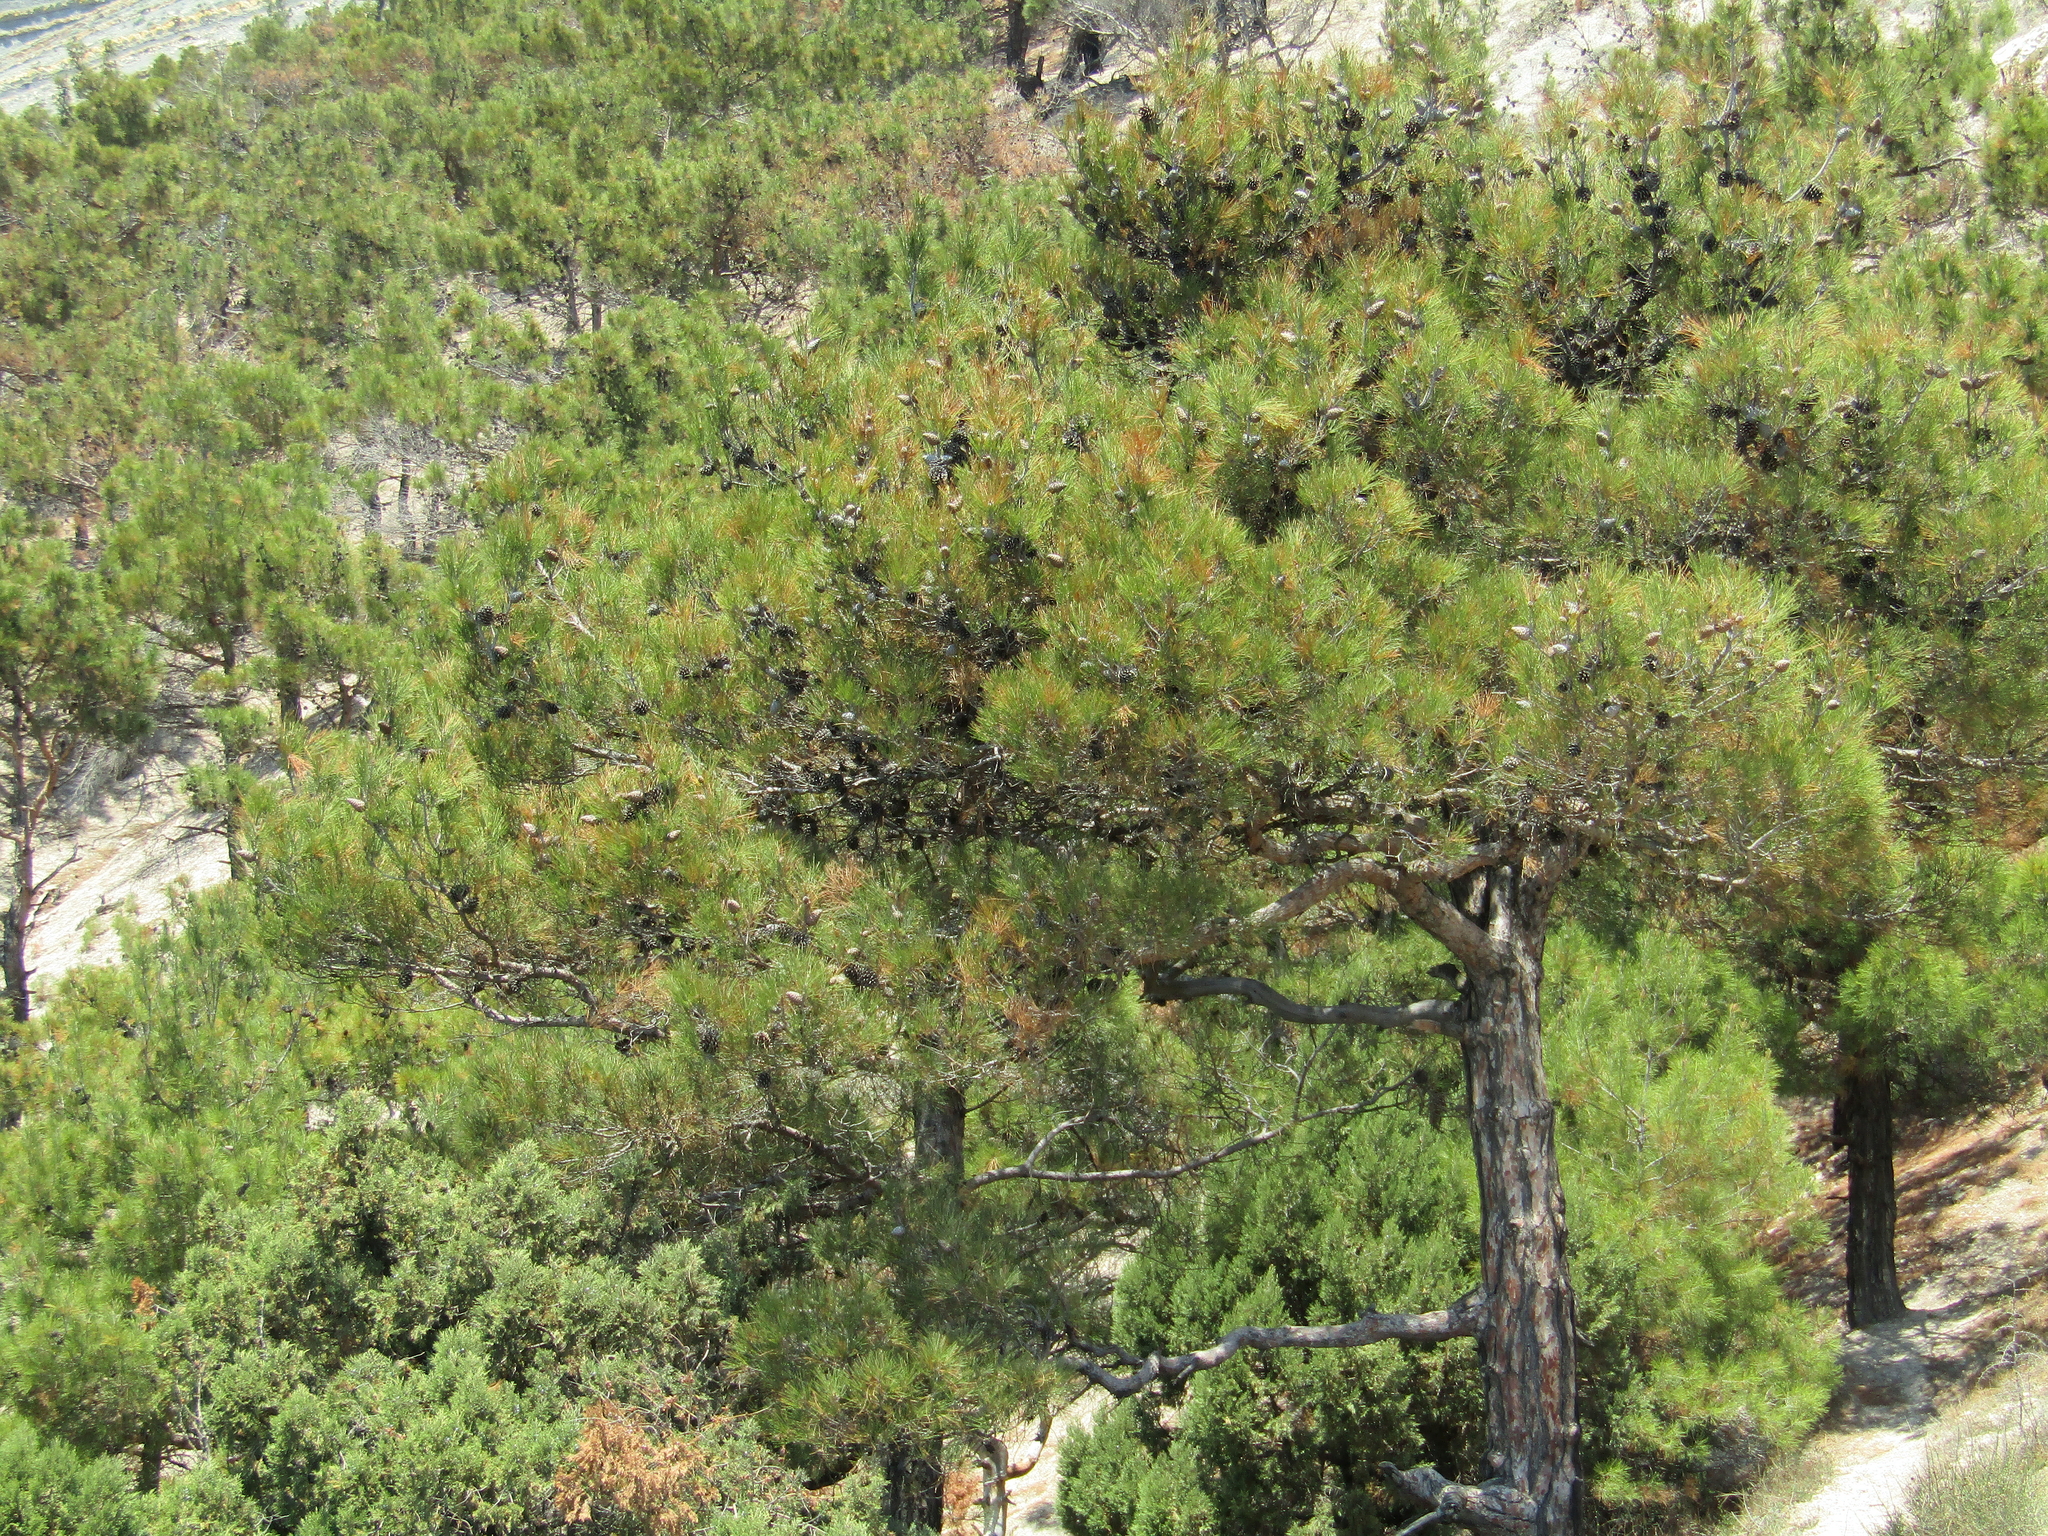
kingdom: Plantae
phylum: Tracheophyta
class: Pinopsida
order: Pinales
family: Pinaceae
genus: Pinus
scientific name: Pinus brutia
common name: Turkish pine
